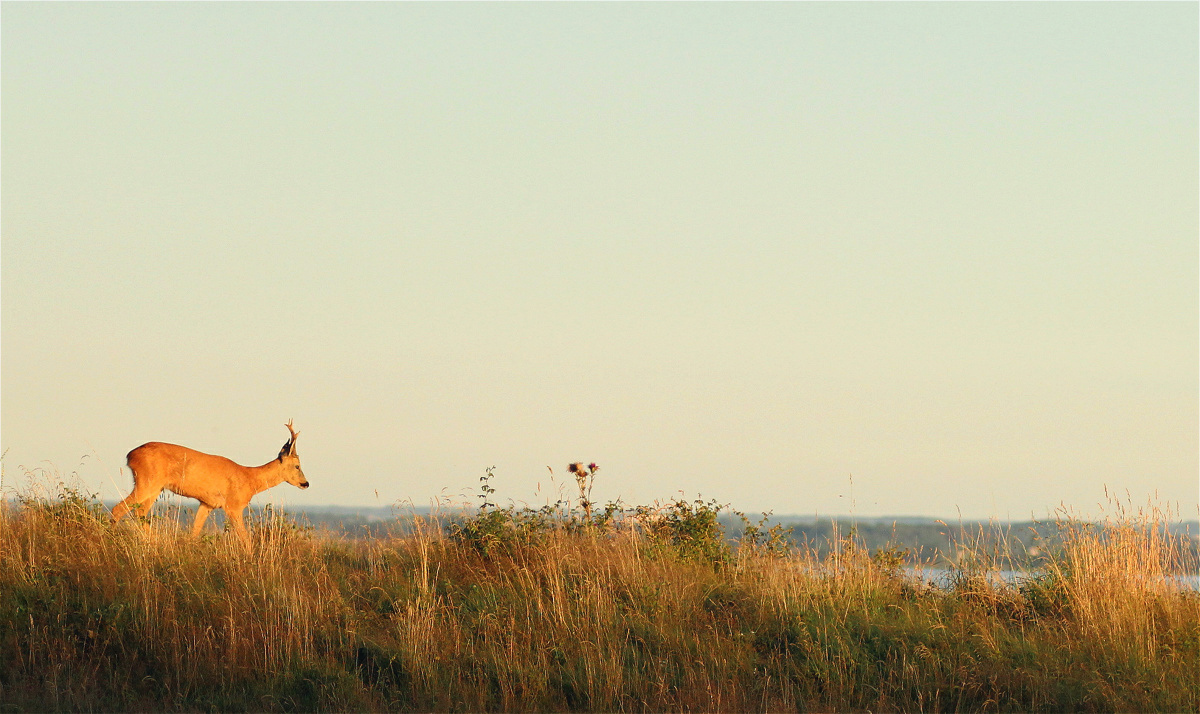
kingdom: Animalia
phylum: Chordata
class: Mammalia
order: Artiodactyla
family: Cervidae
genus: Capreolus
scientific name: Capreolus capreolus
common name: Western roe deer
